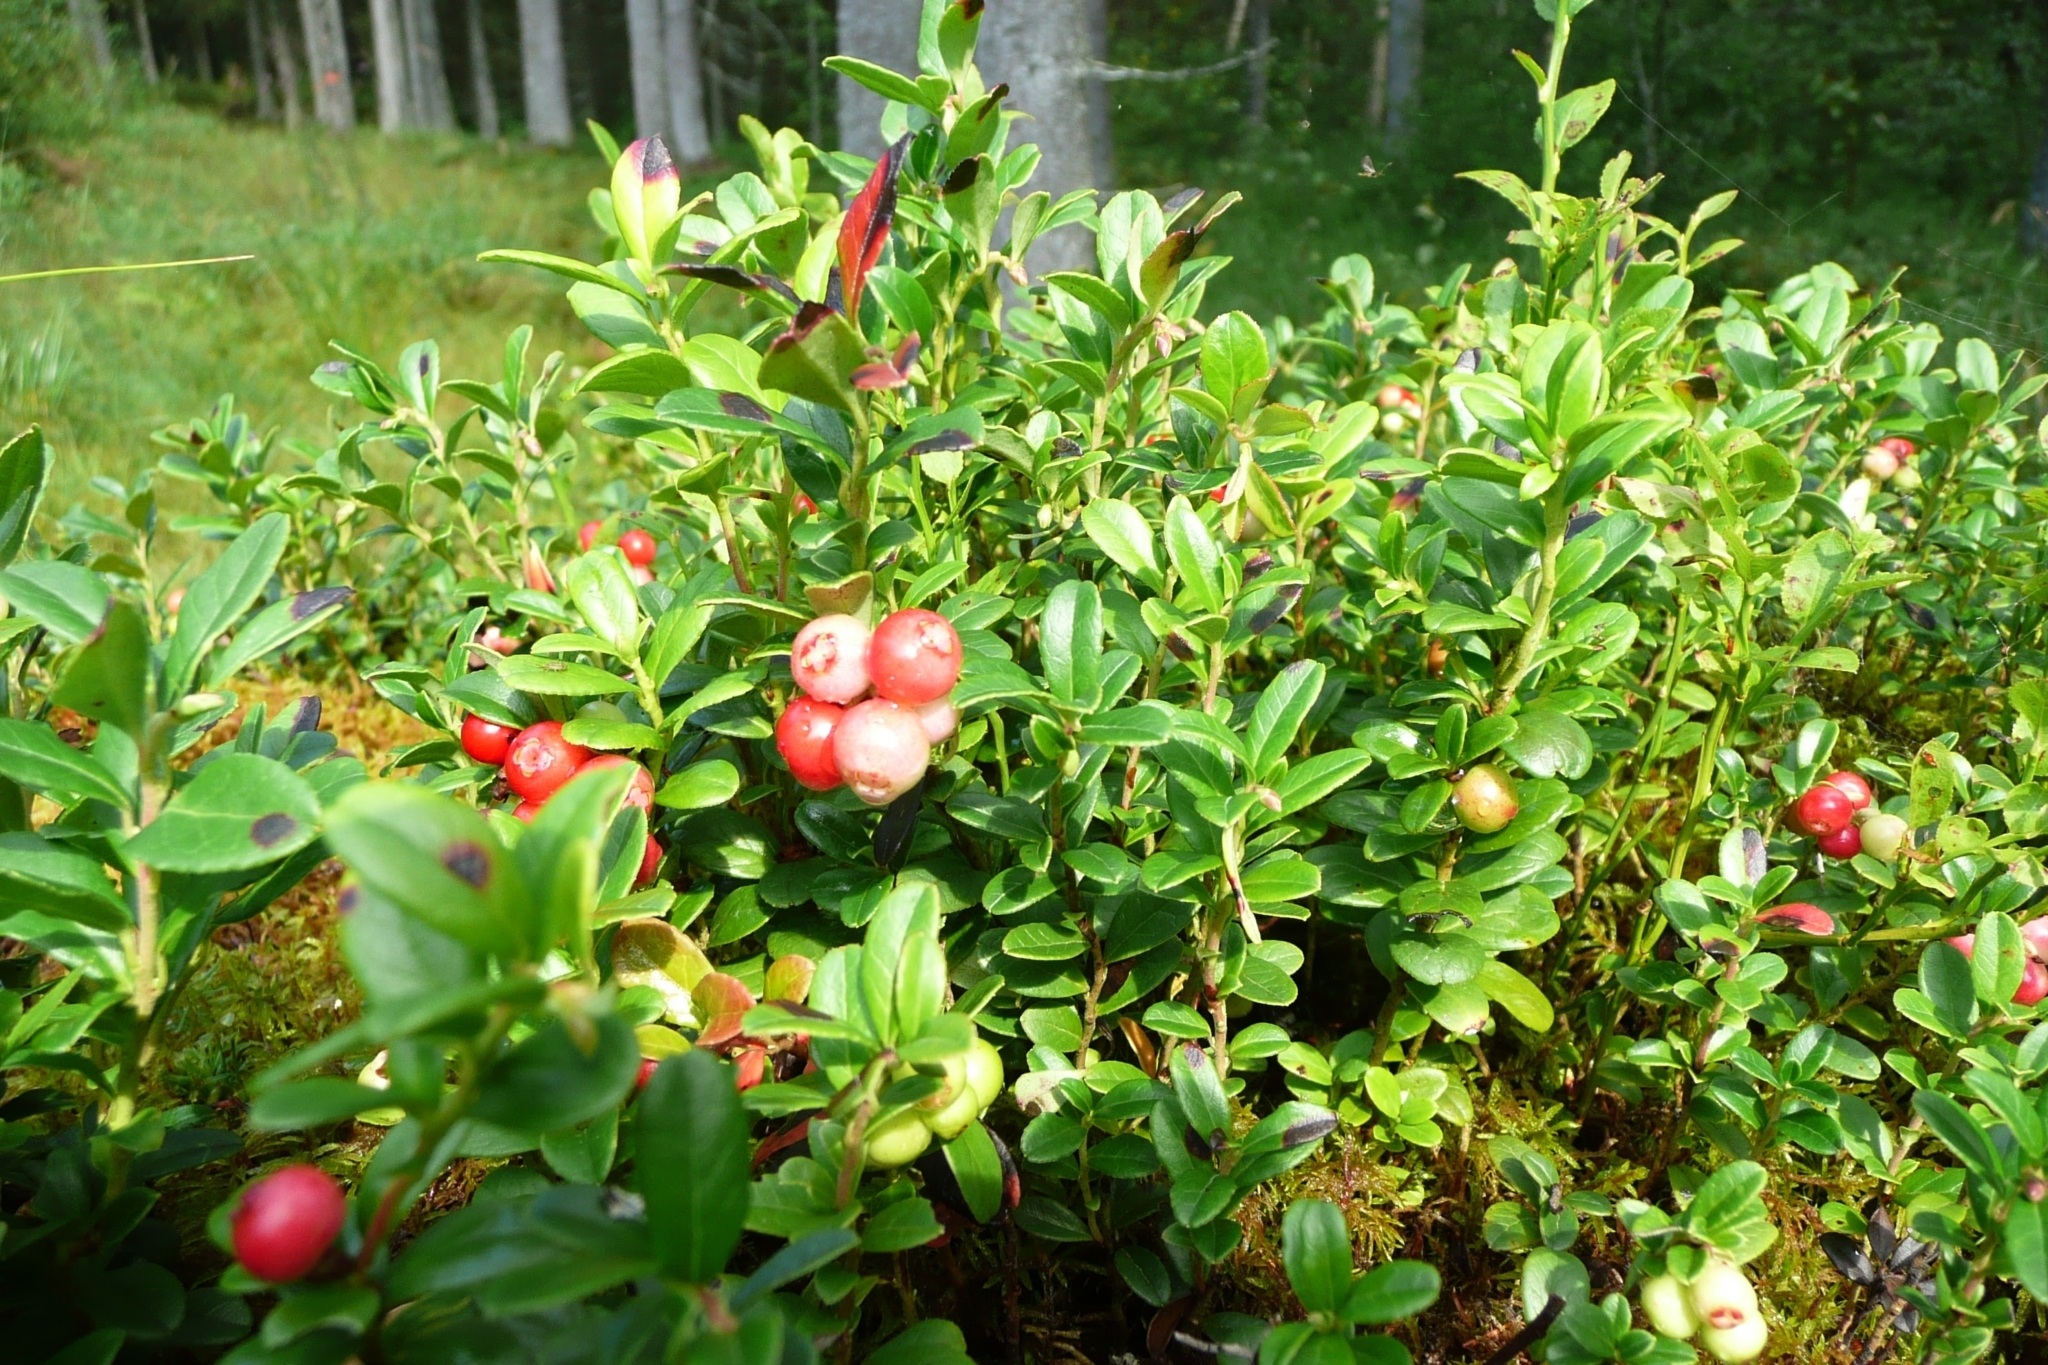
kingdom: Plantae
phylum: Tracheophyta
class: Magnoliopsida
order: Ericales
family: Ericaceae
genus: Vaccinium
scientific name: Vaccinium vitis-idaea
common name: Cowberry
